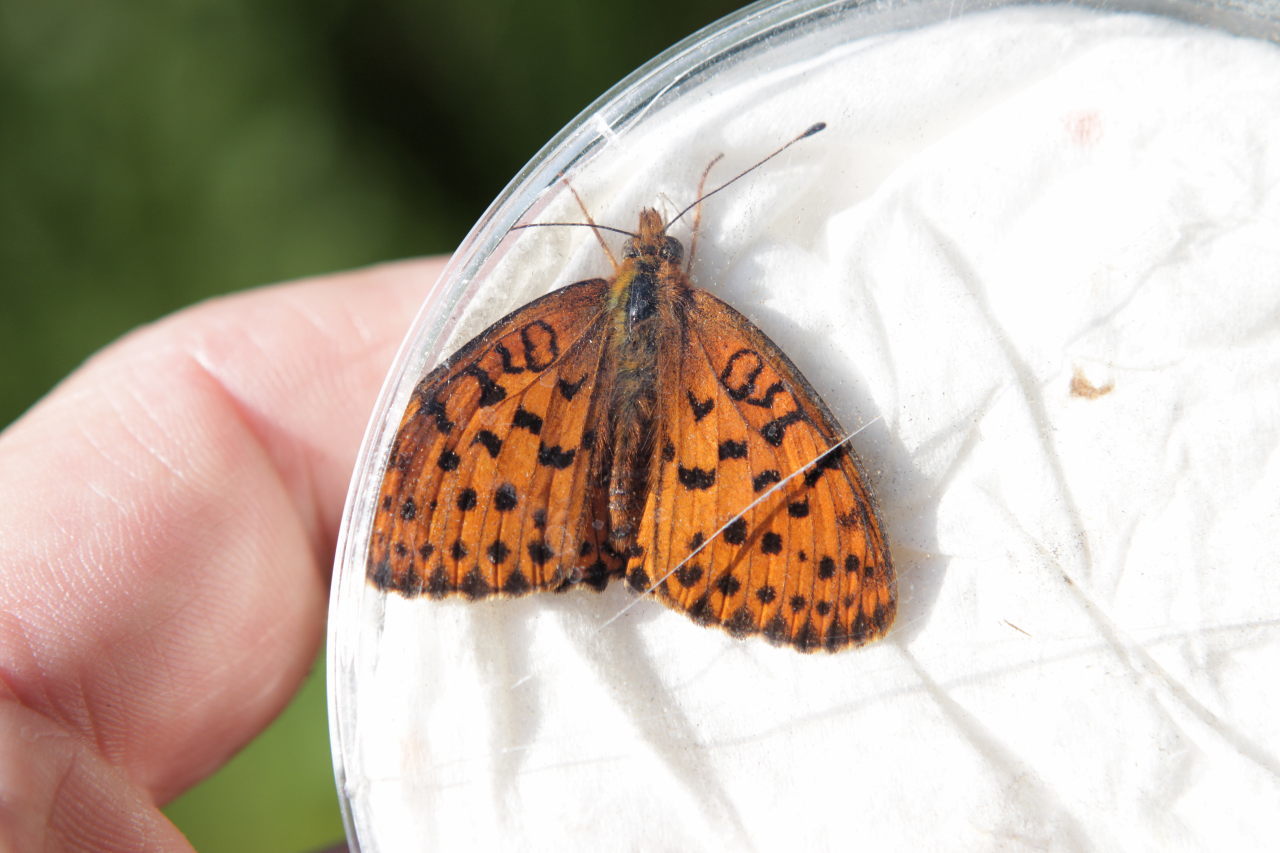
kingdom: Animalia
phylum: Arthropoda
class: Insecta
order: Lepidoptera
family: Nymphalidae
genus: Brenthis
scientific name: Brenthis daphne
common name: Marbled fritillary
